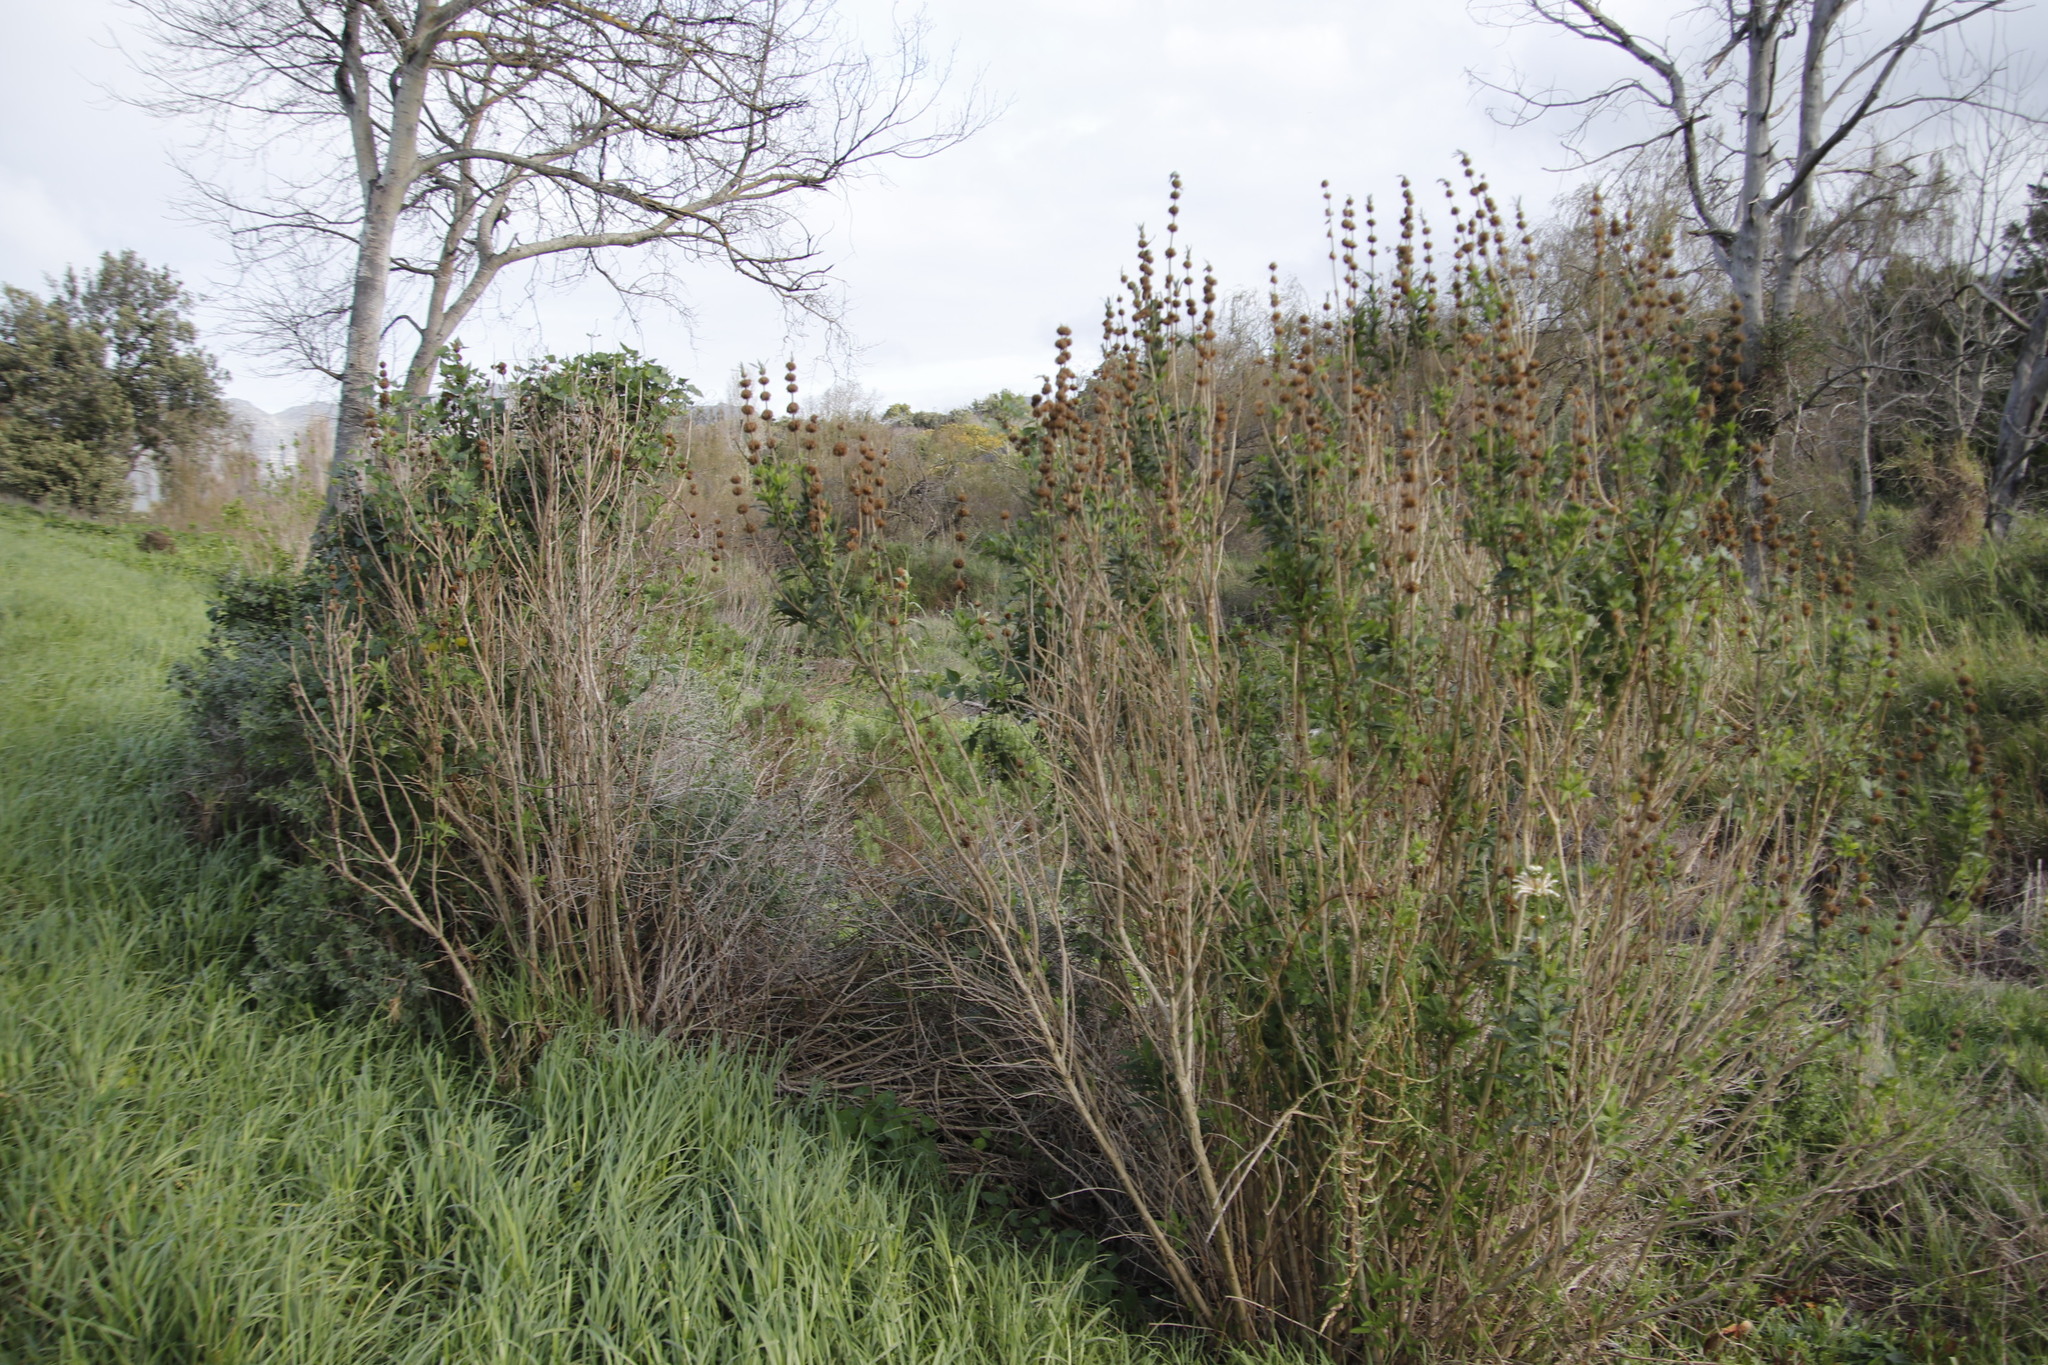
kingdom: Plantae
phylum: Tracheophyta
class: Magnoliopsida
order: Lamiales
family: Lamiaceae
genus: Leonotis
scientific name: Leonotis leonurus
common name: Lion's ear
